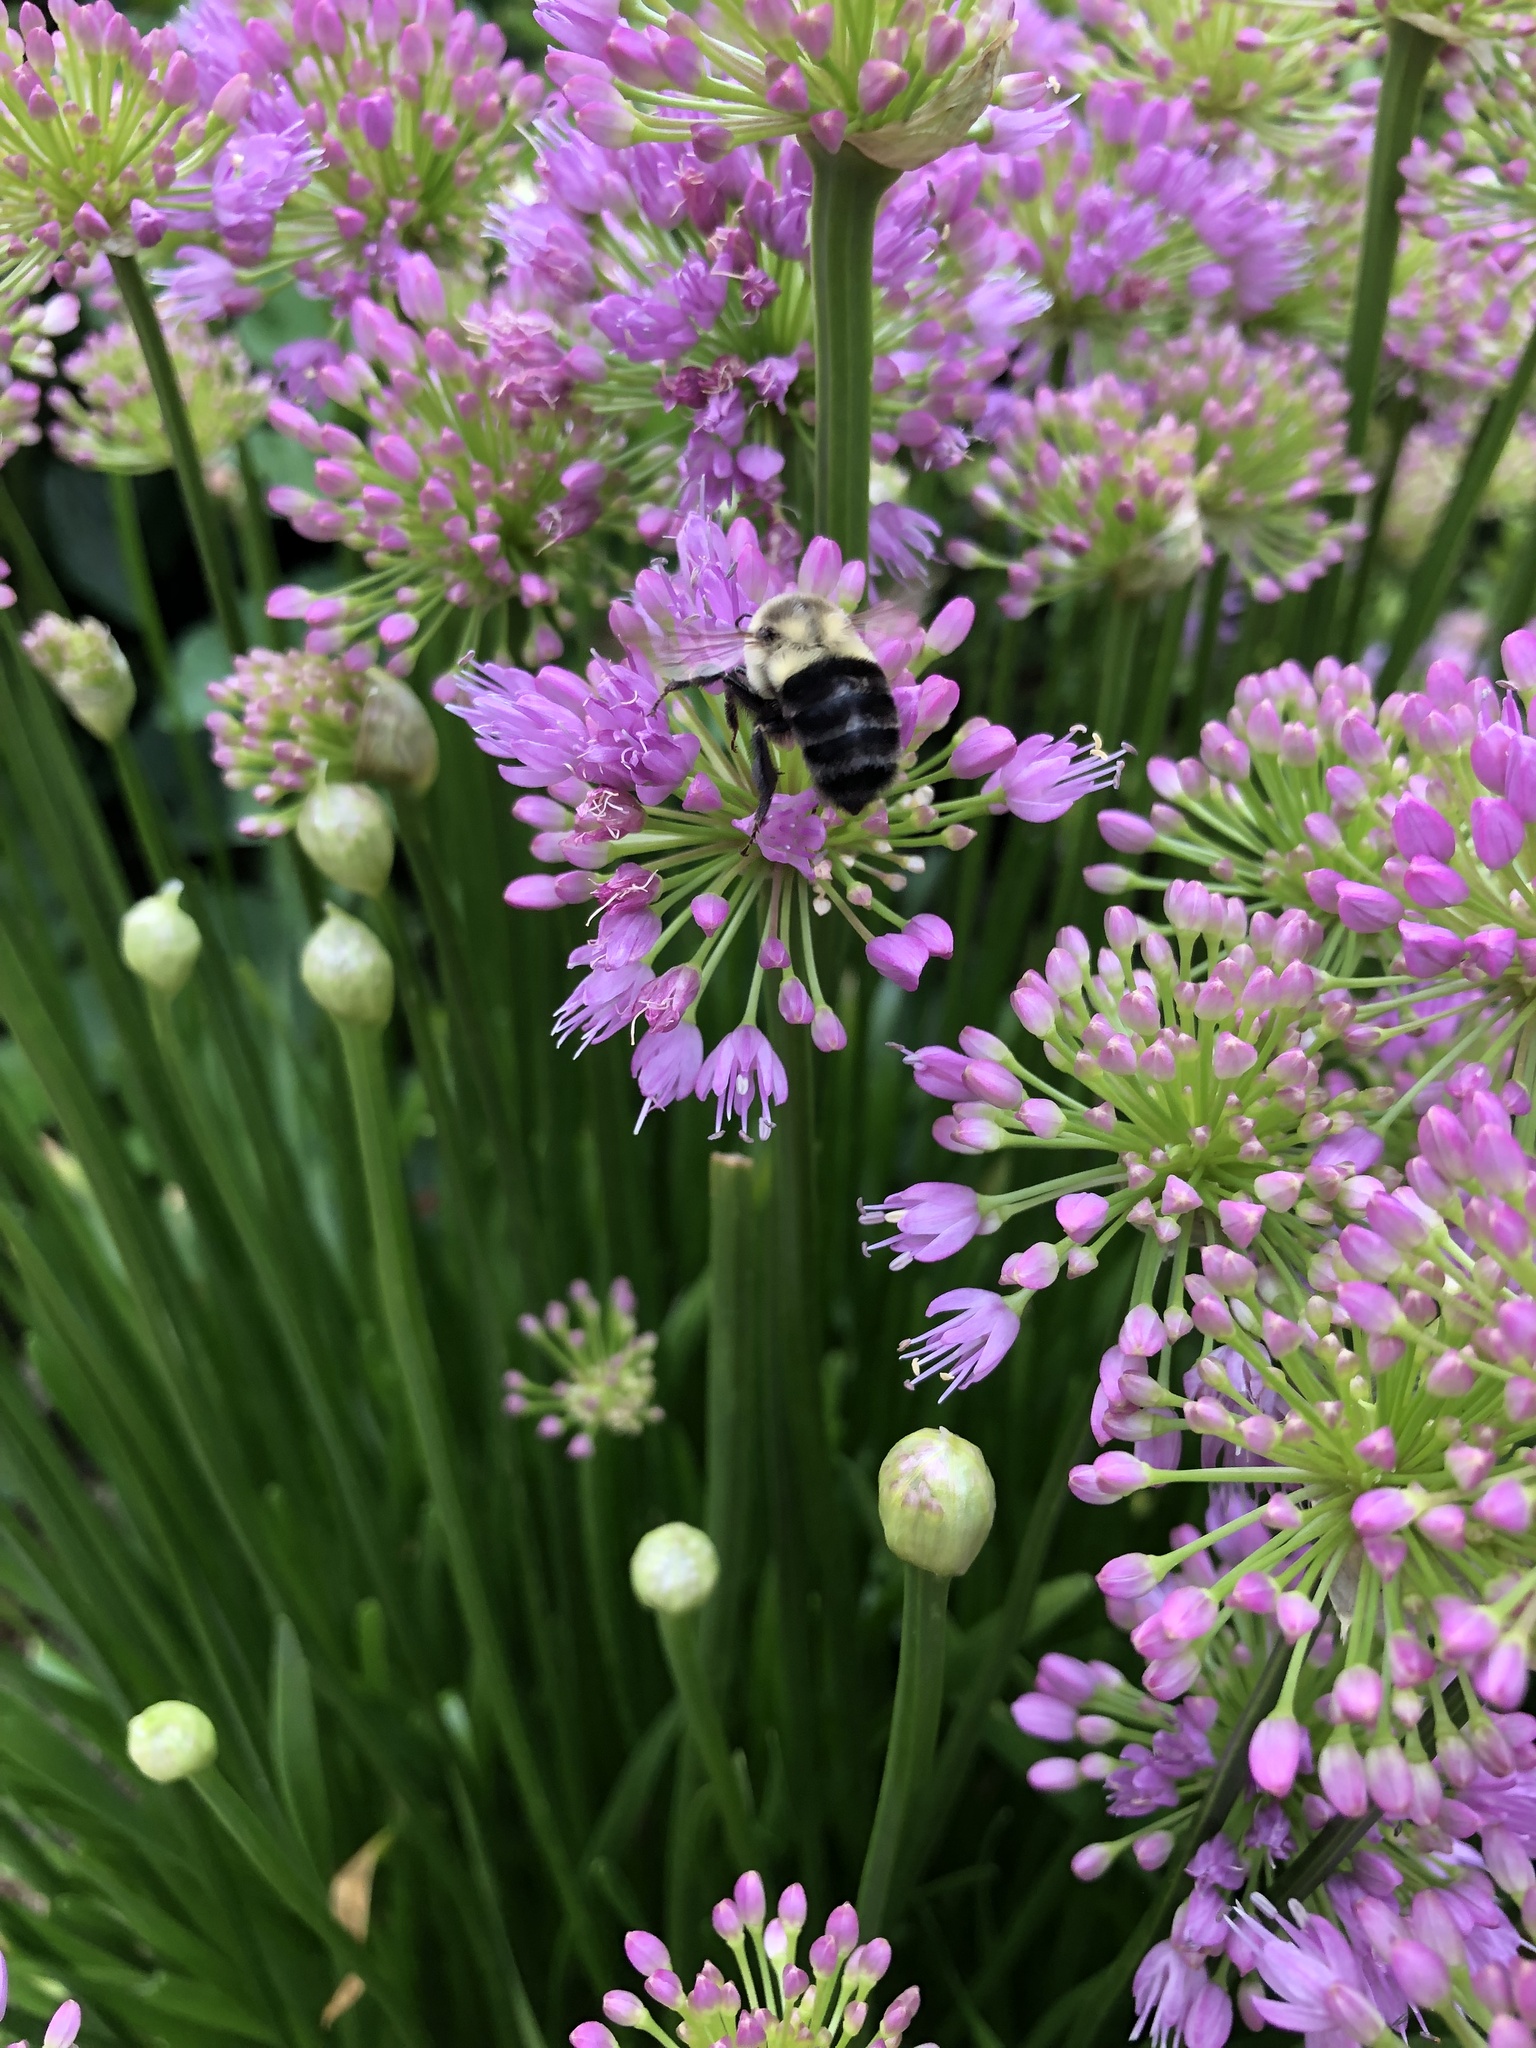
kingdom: Animalia
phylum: Arthropoda
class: Insecta
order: Hymenoptera
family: Apidae
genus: Bombus
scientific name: Bombus impatiens
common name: Common eastern bumble bee
